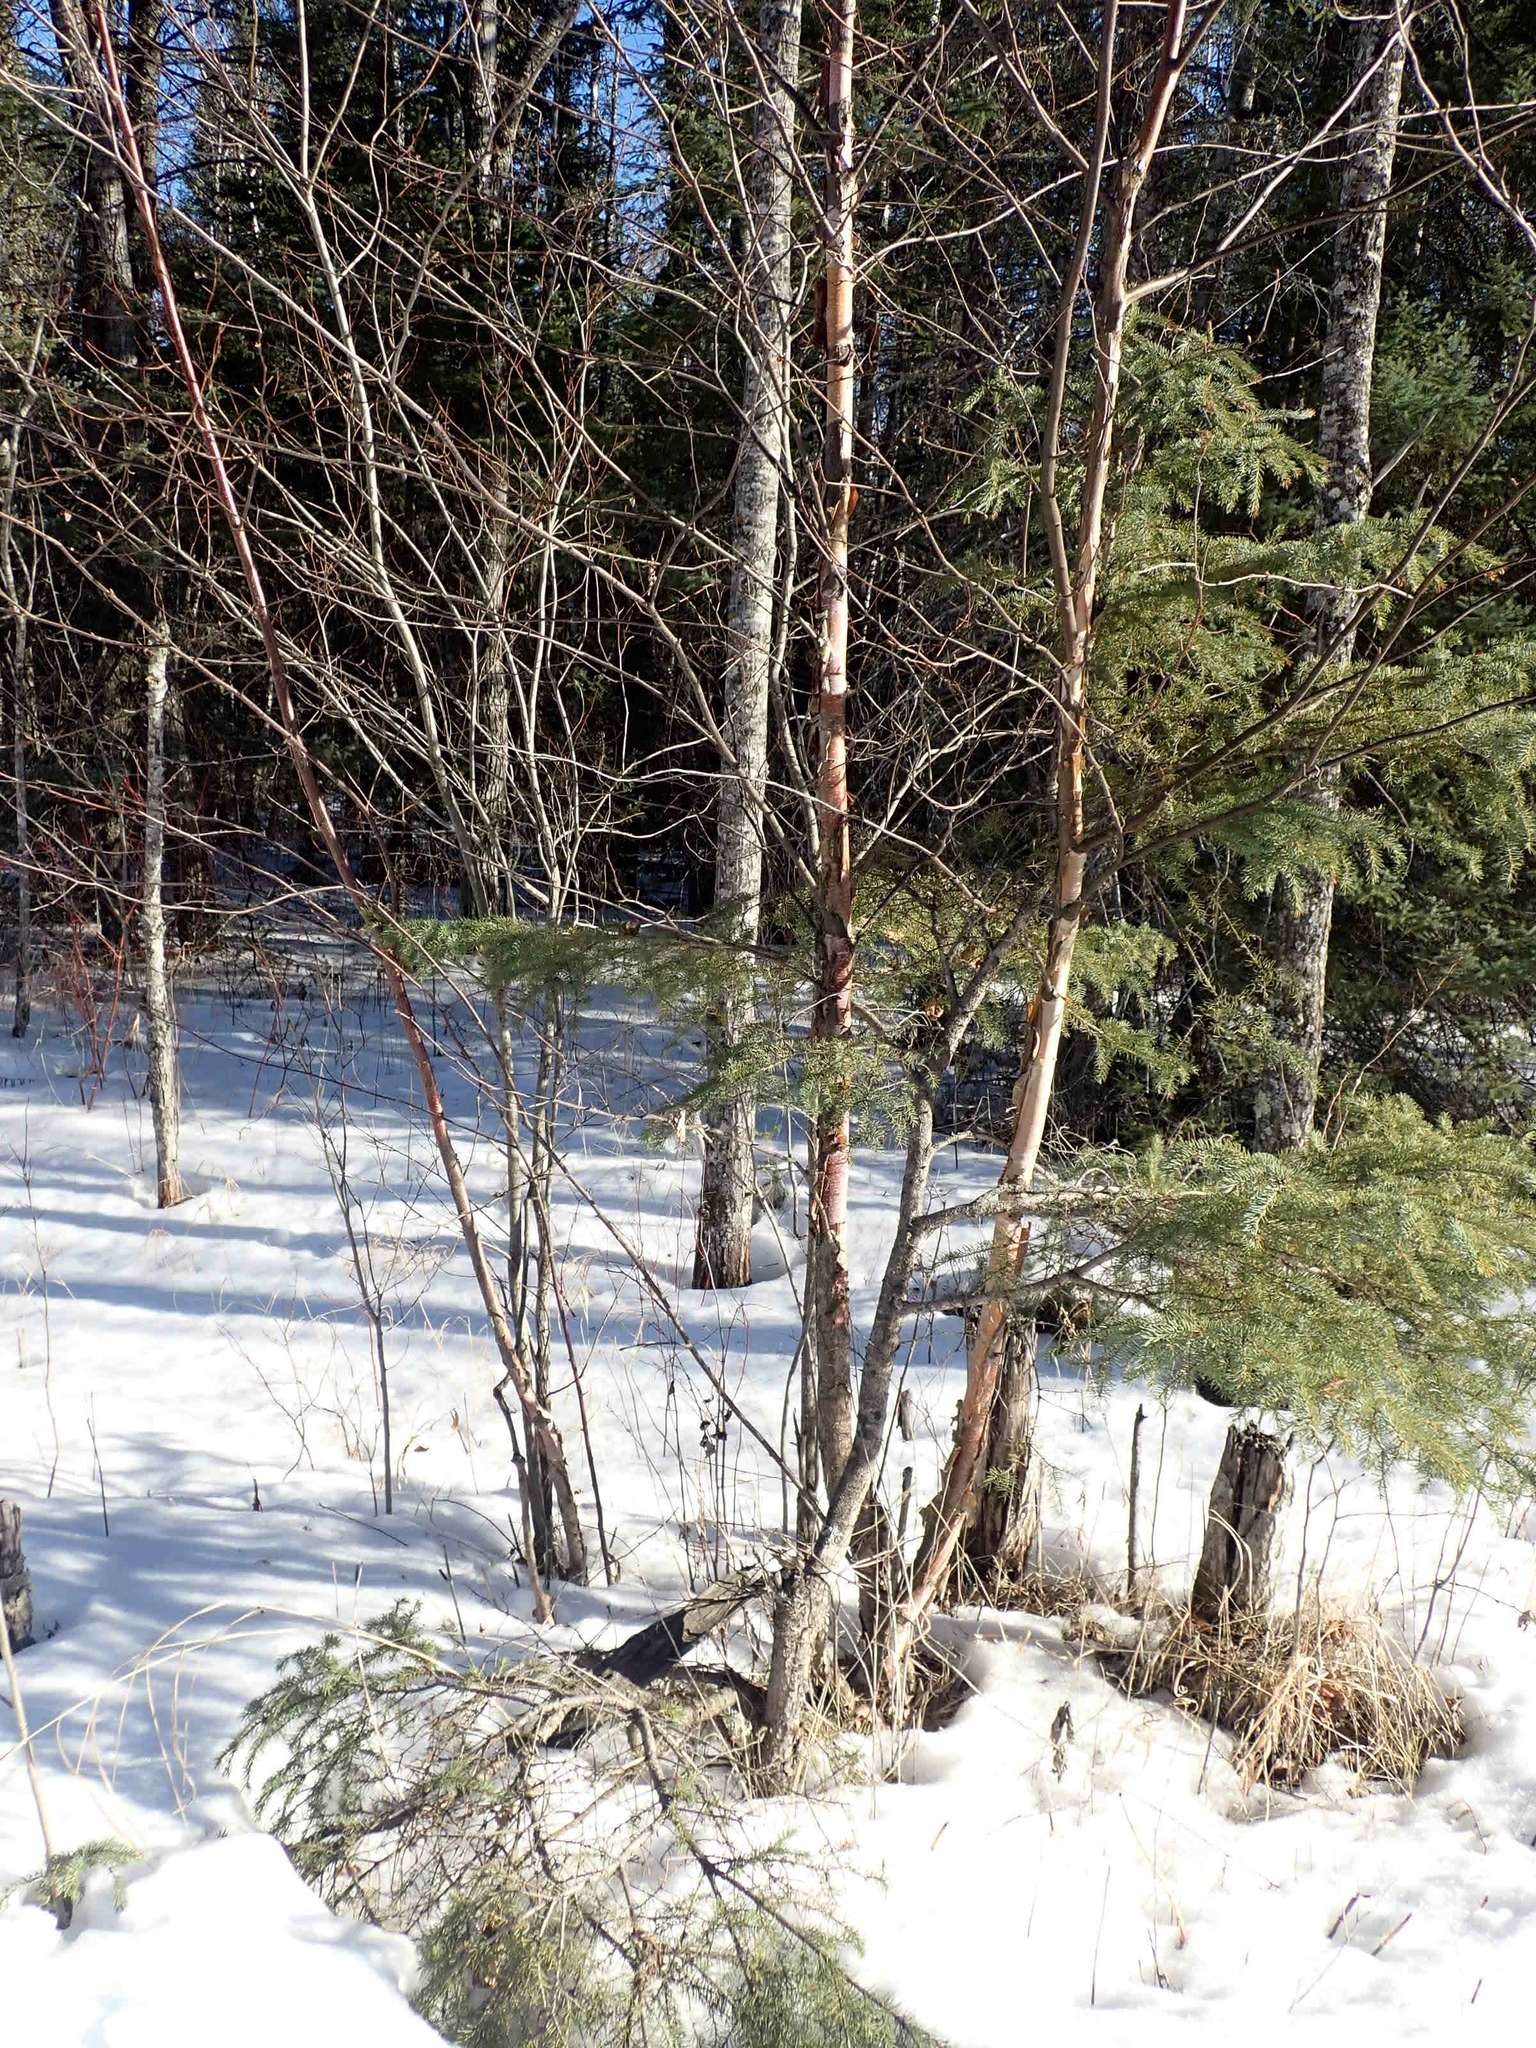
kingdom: Plantae
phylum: Tracheophyta
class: Magnoliopsida
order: Fagales
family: Betulaceae
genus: Betula
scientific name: Betula occidentalis
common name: River birch
